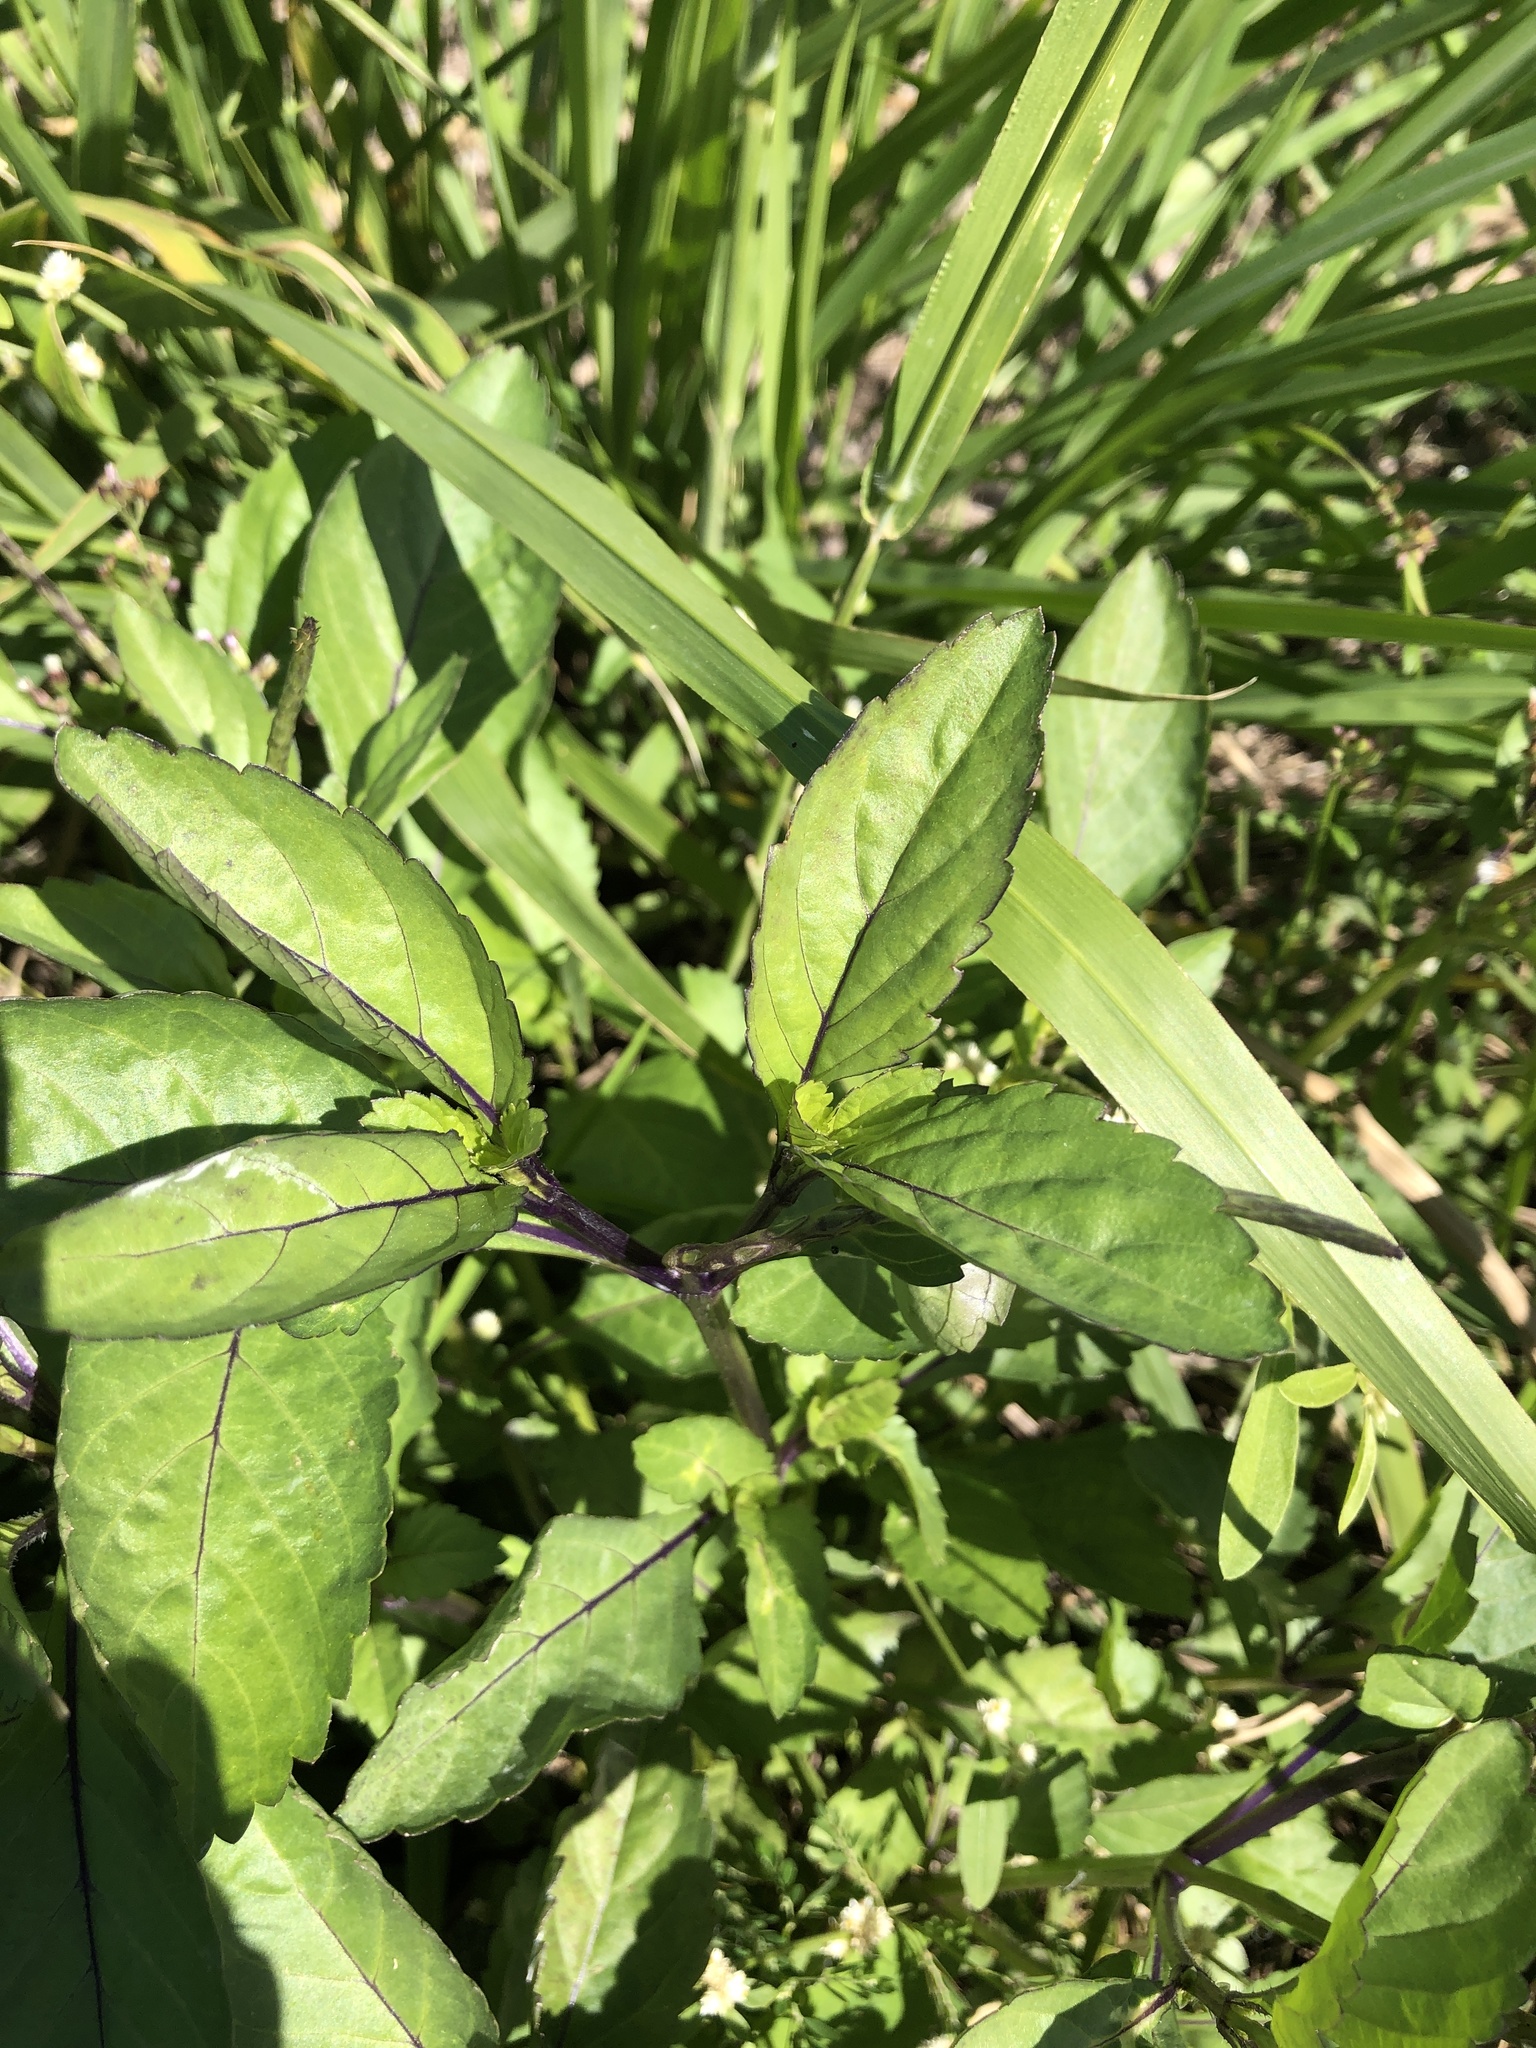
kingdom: Plantae
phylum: Tracheophyta
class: Magnoliopsida
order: Lamiales
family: Verbenaceae
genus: Stachytarpheta
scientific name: Stachytarpheta jamaicensis
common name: Light-blue snakeweed
